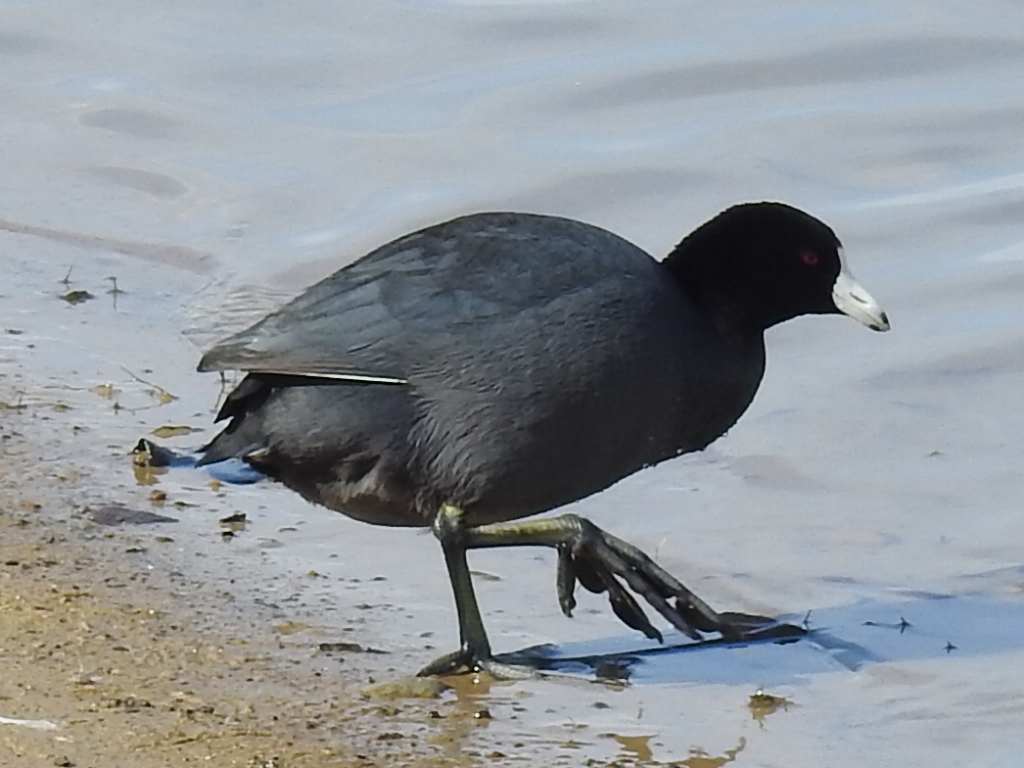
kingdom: Animalia
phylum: Chordata
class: Aves
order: Gruiformes
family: Rallidae
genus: Fulica
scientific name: Fulica americana
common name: American coot
